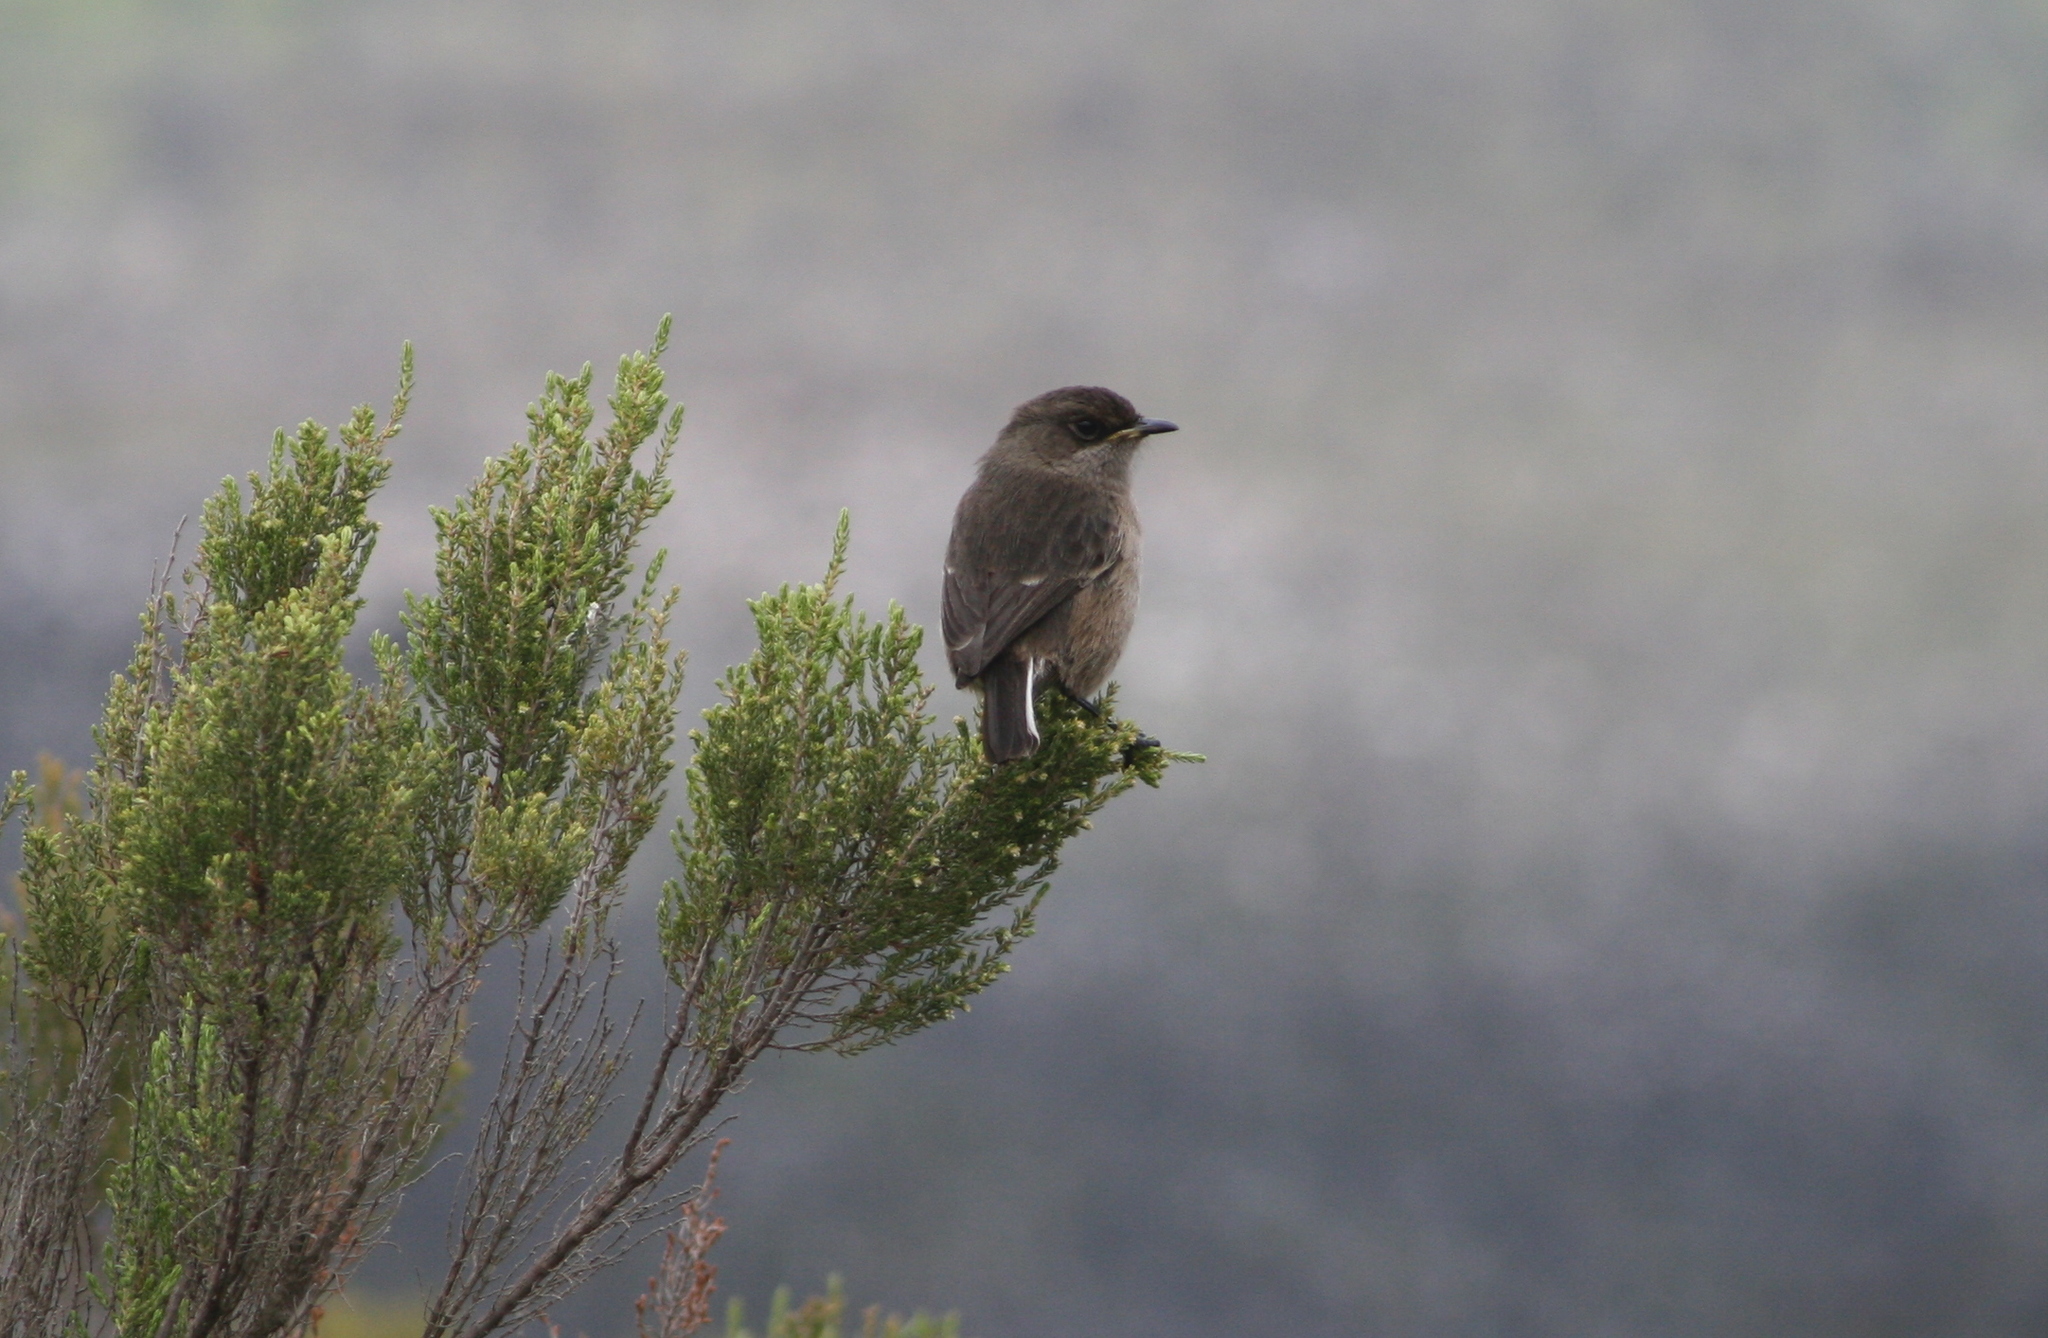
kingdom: Animalia
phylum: Chordata
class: Aves
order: Passeriformes
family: Muscicapidae
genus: Pinarochroa
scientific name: Pinarochroa sordida
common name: Moorland chat
